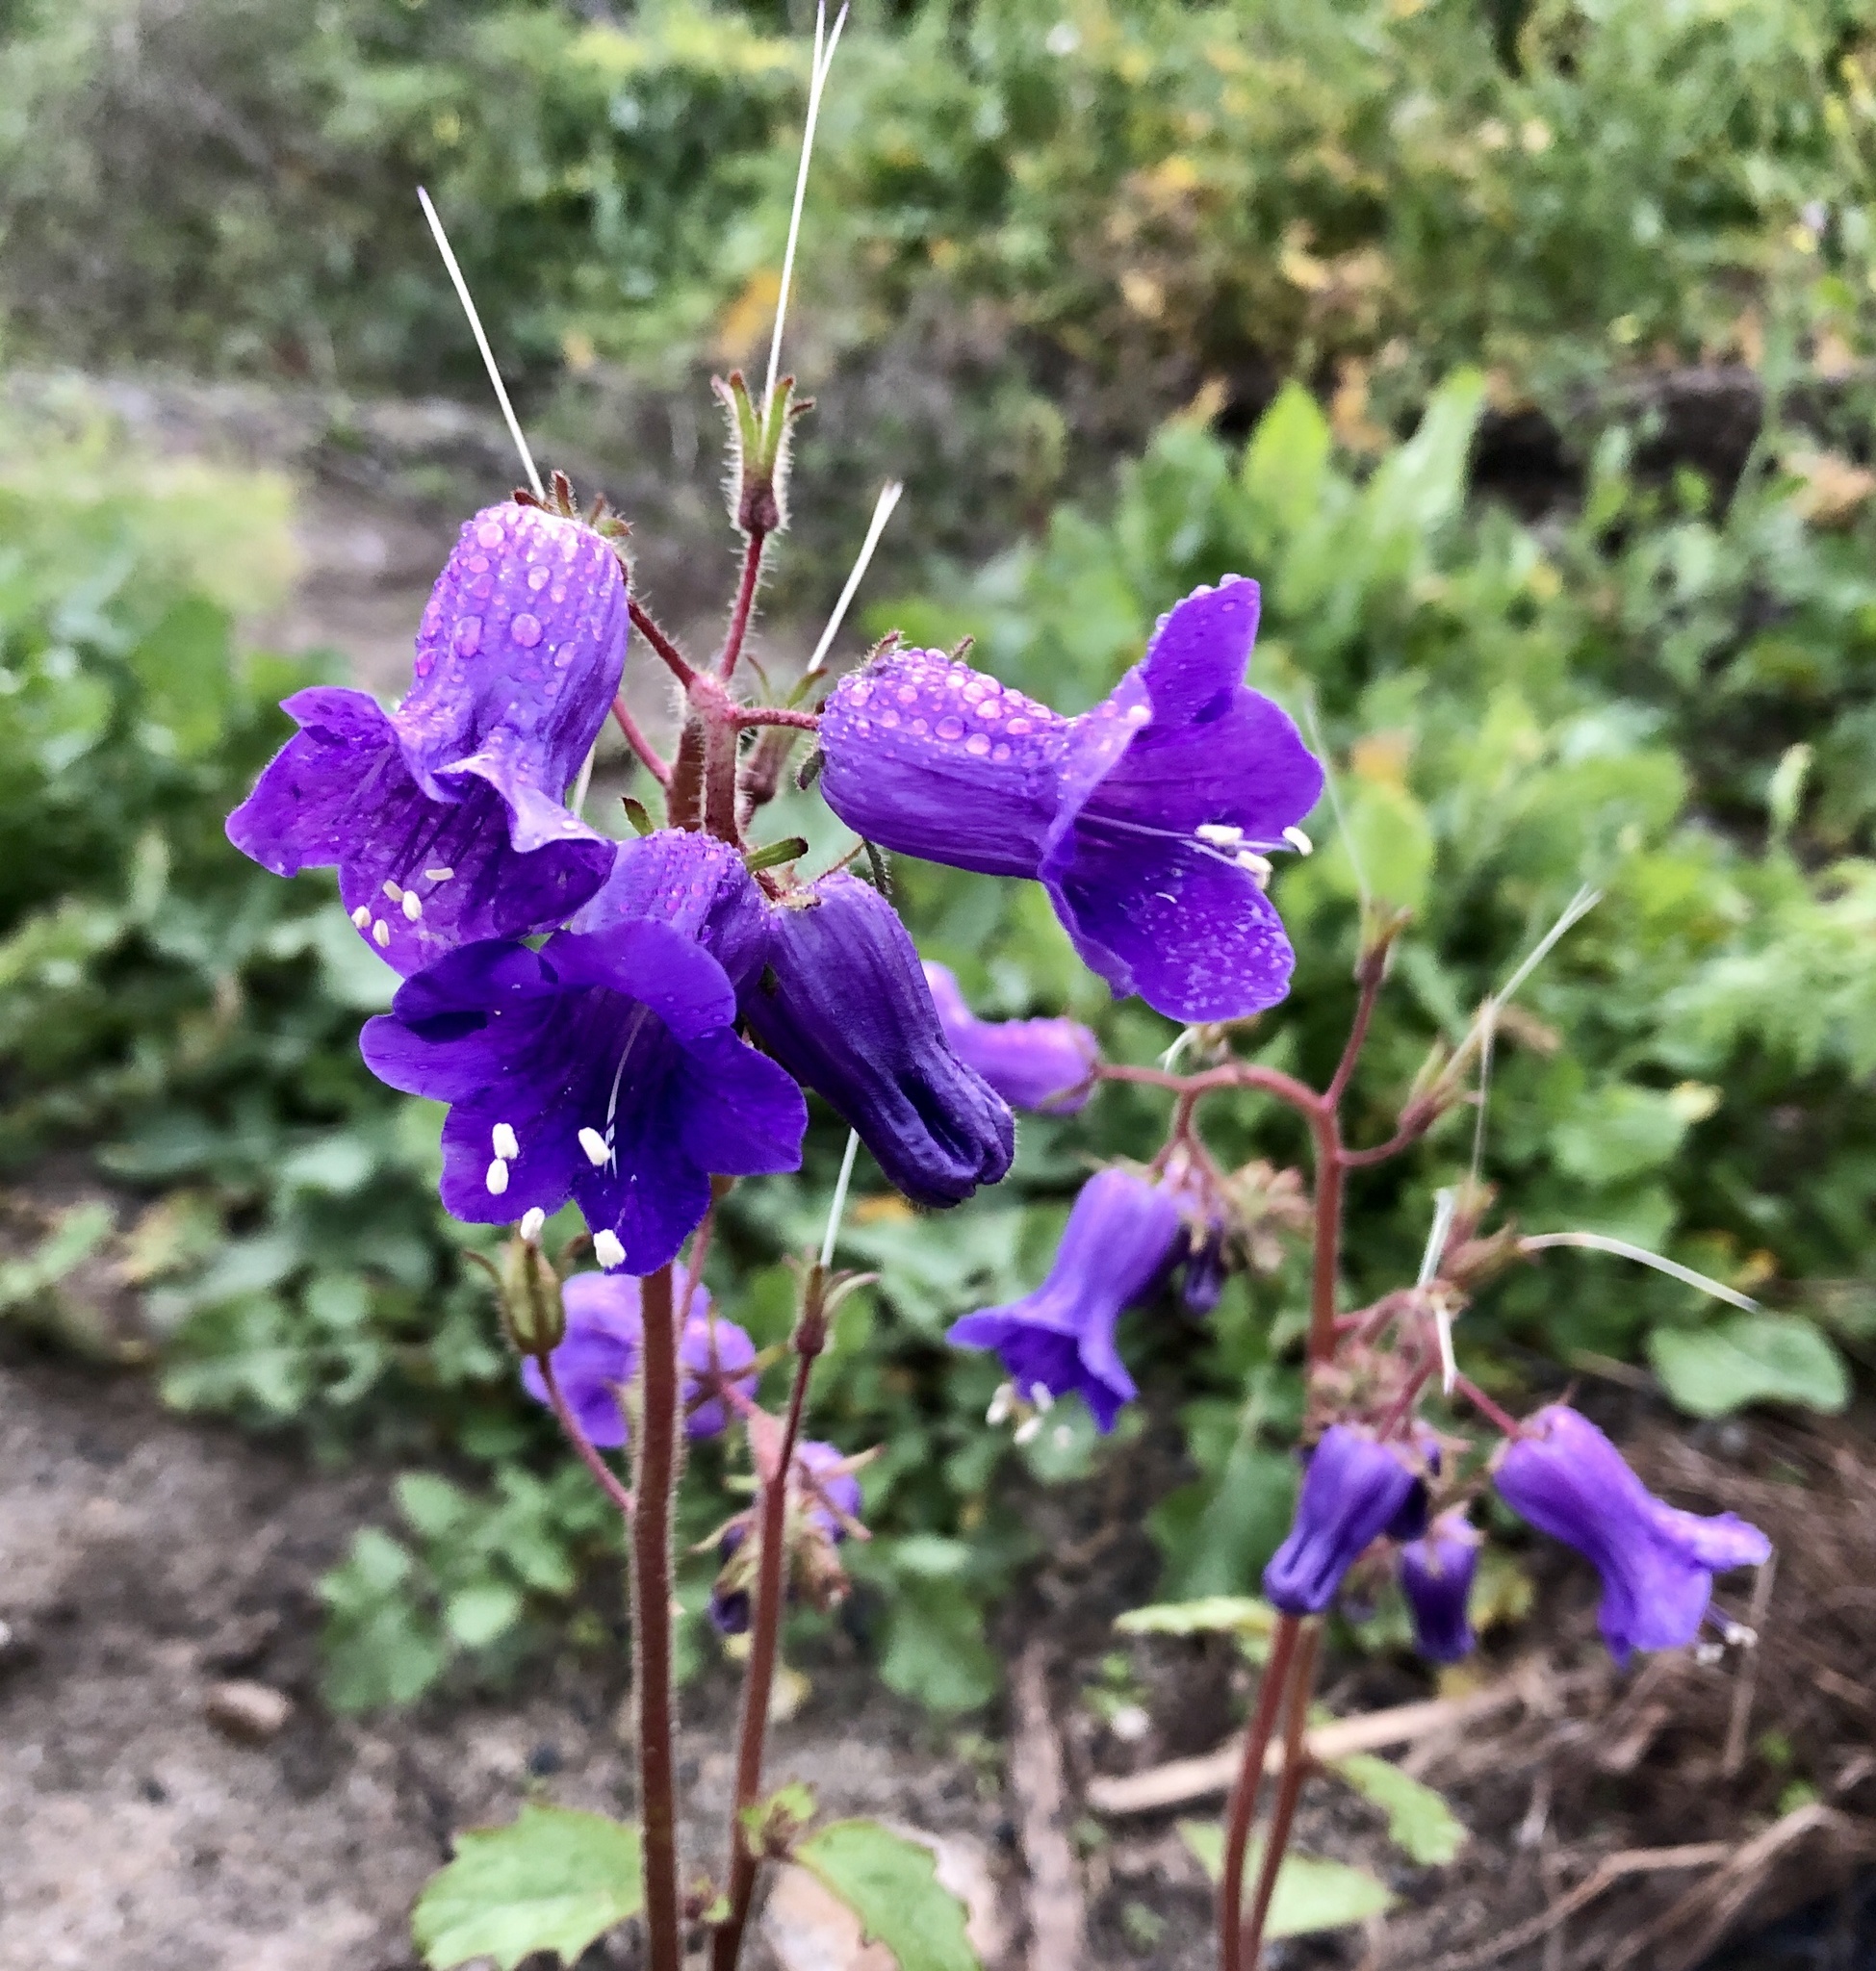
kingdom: Plantae
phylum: Tracheophyta
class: Magnoliopsida
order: Boraginales
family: Hydrophyllaceae
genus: Phacelia
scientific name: Phacelia minor
